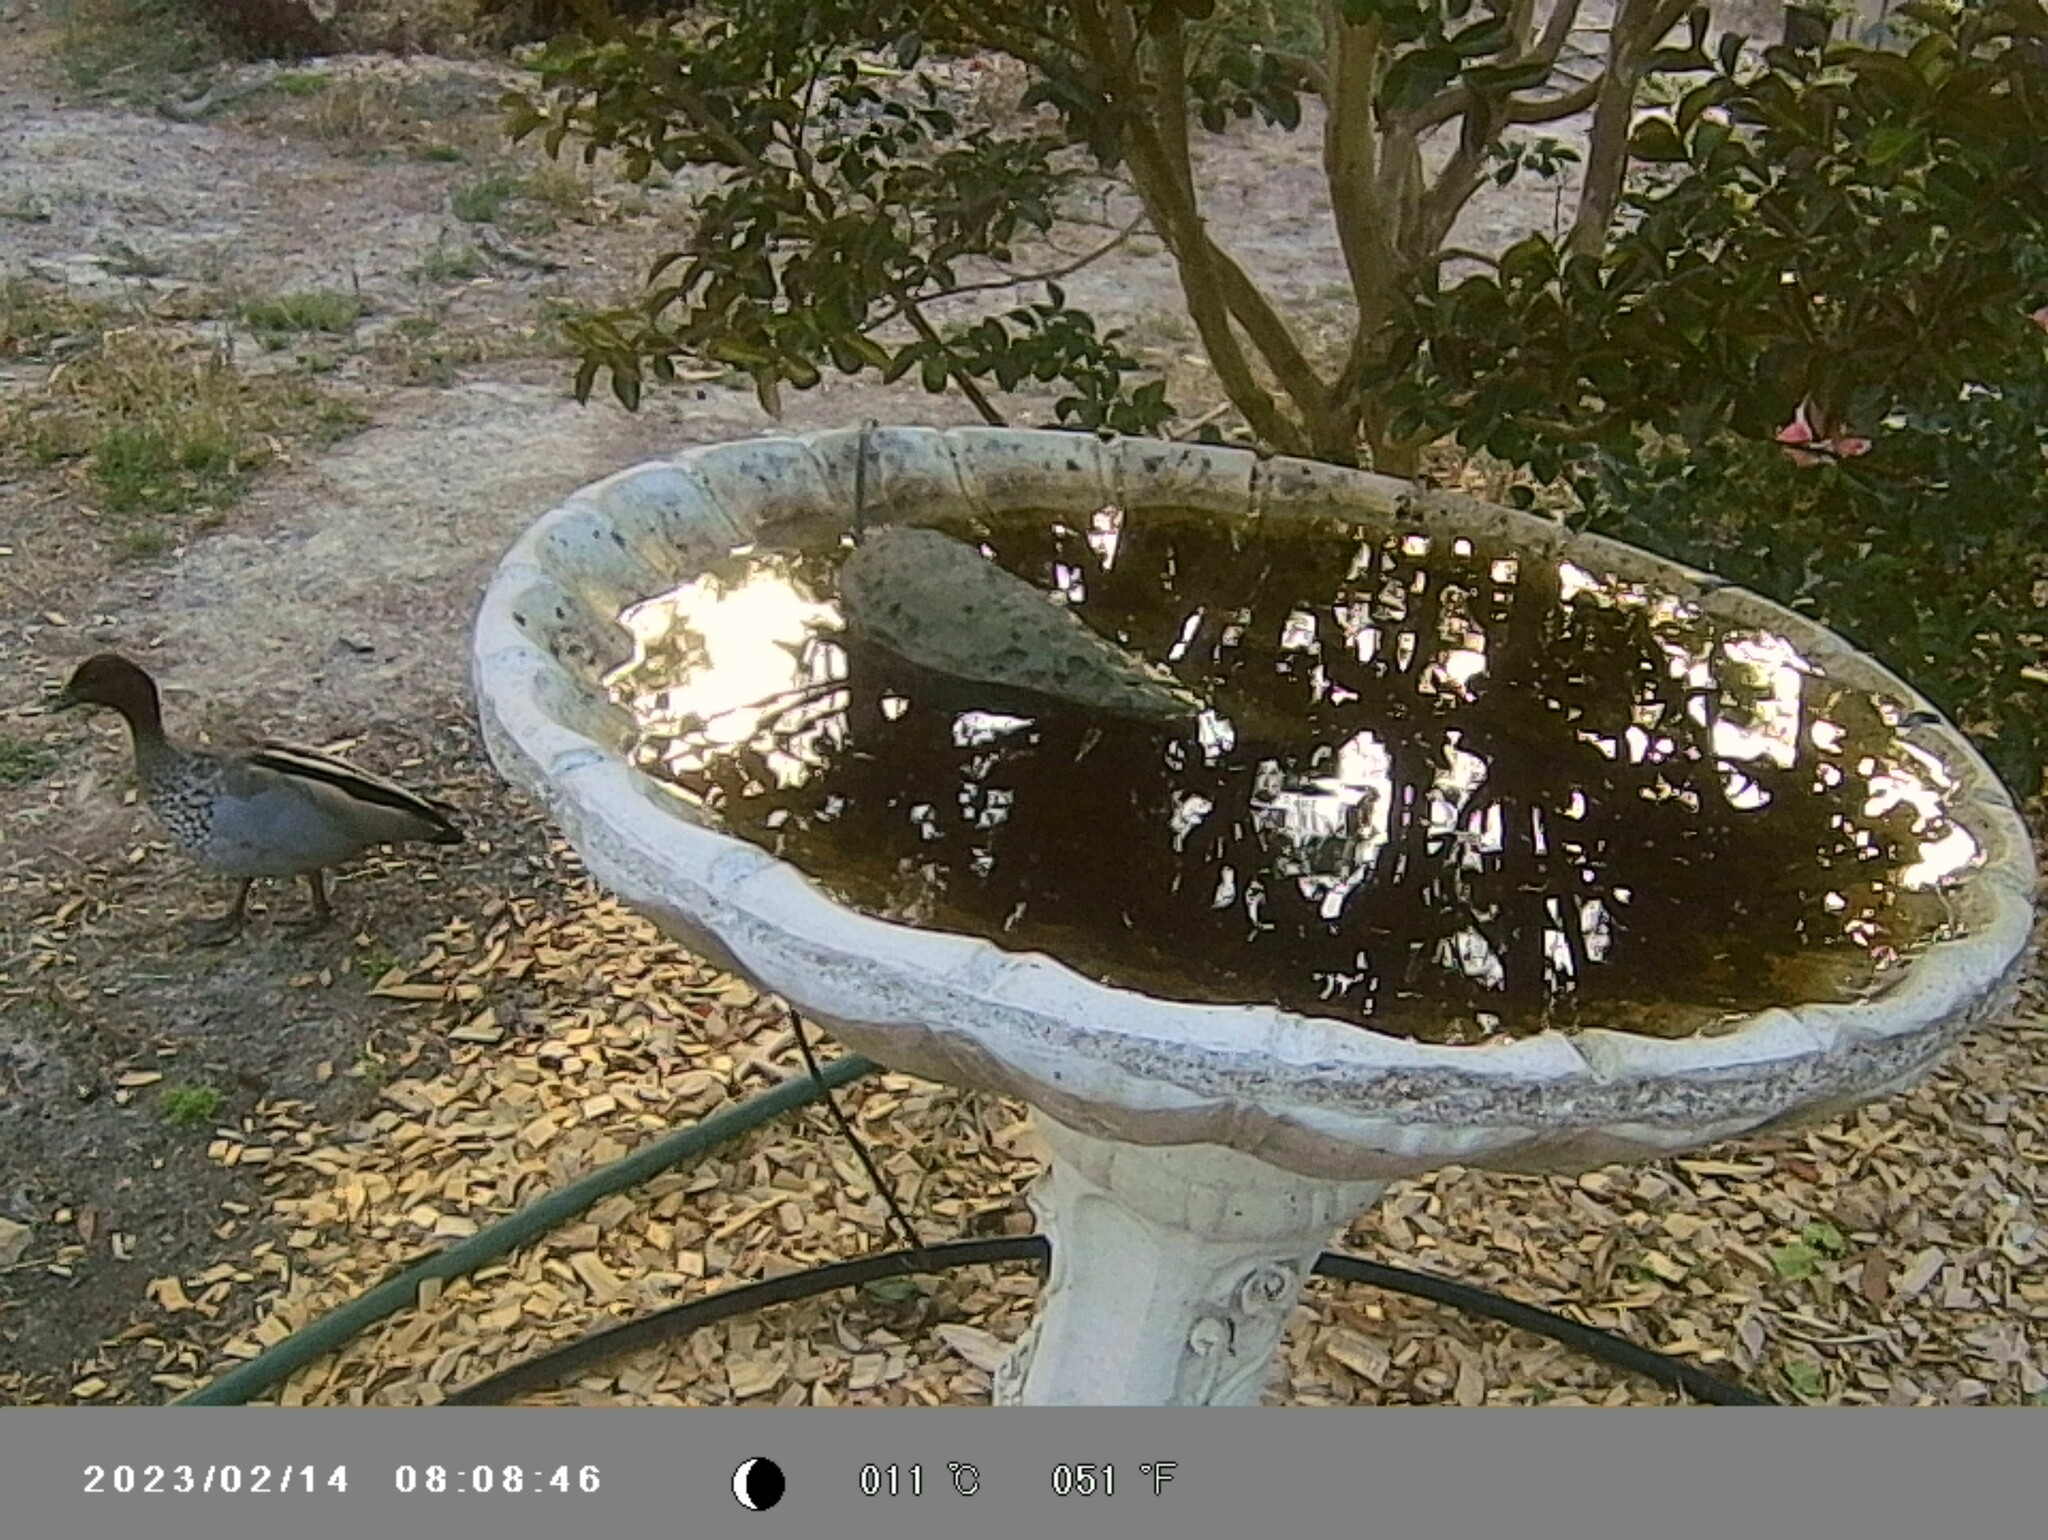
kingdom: Animalia
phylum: Chordata
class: Aves
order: Anseriformes
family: Anatidae
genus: Chenonetta
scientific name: Chenonetta jubata
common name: Maned duck
